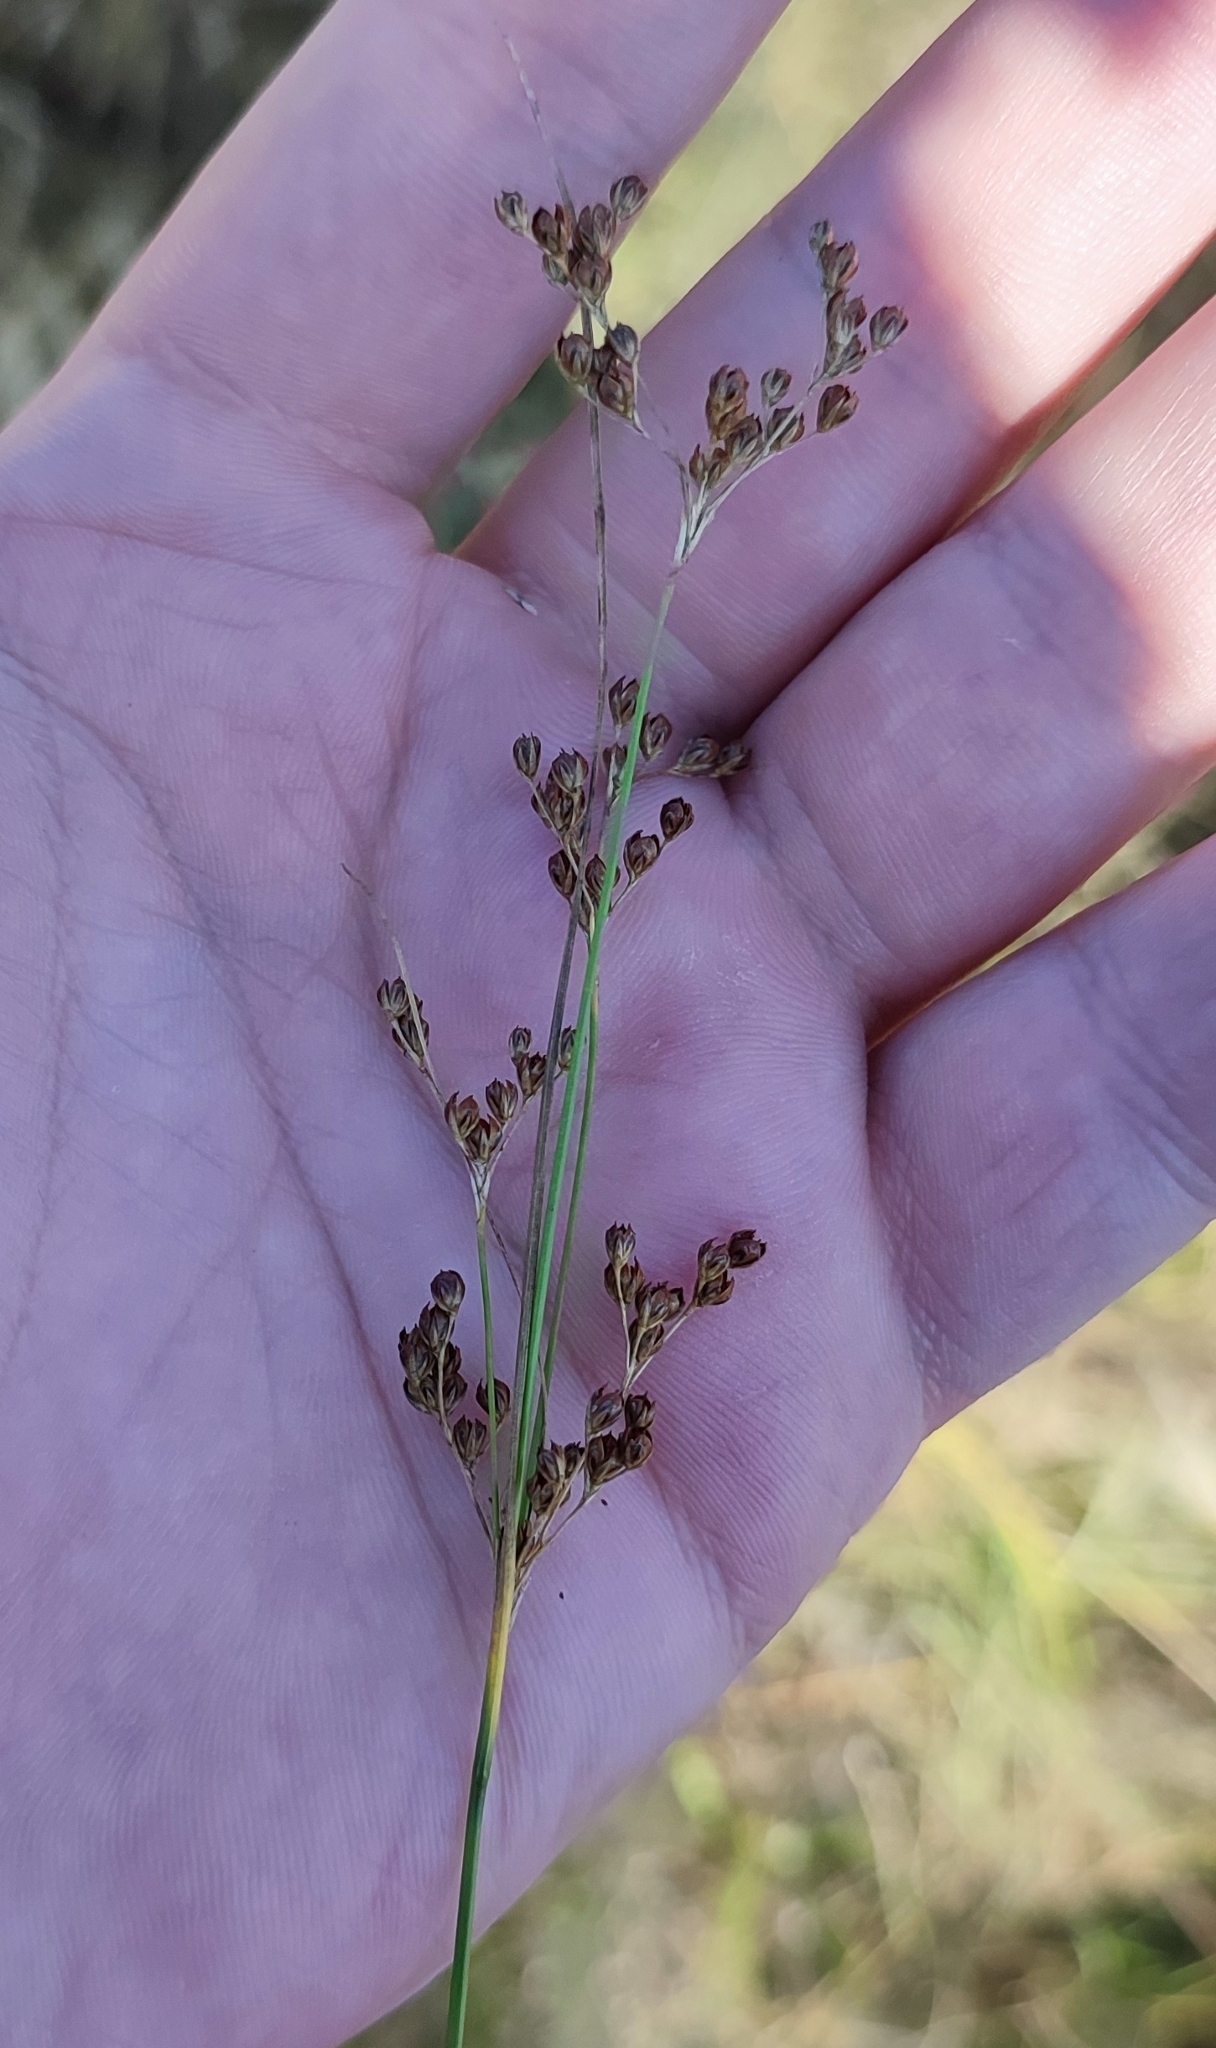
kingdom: Plantae
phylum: Tracheophyta
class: Liliopsida
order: Poales
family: Juncaceae
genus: Juncus
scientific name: Juncus compressus
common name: Round-fruited rush
